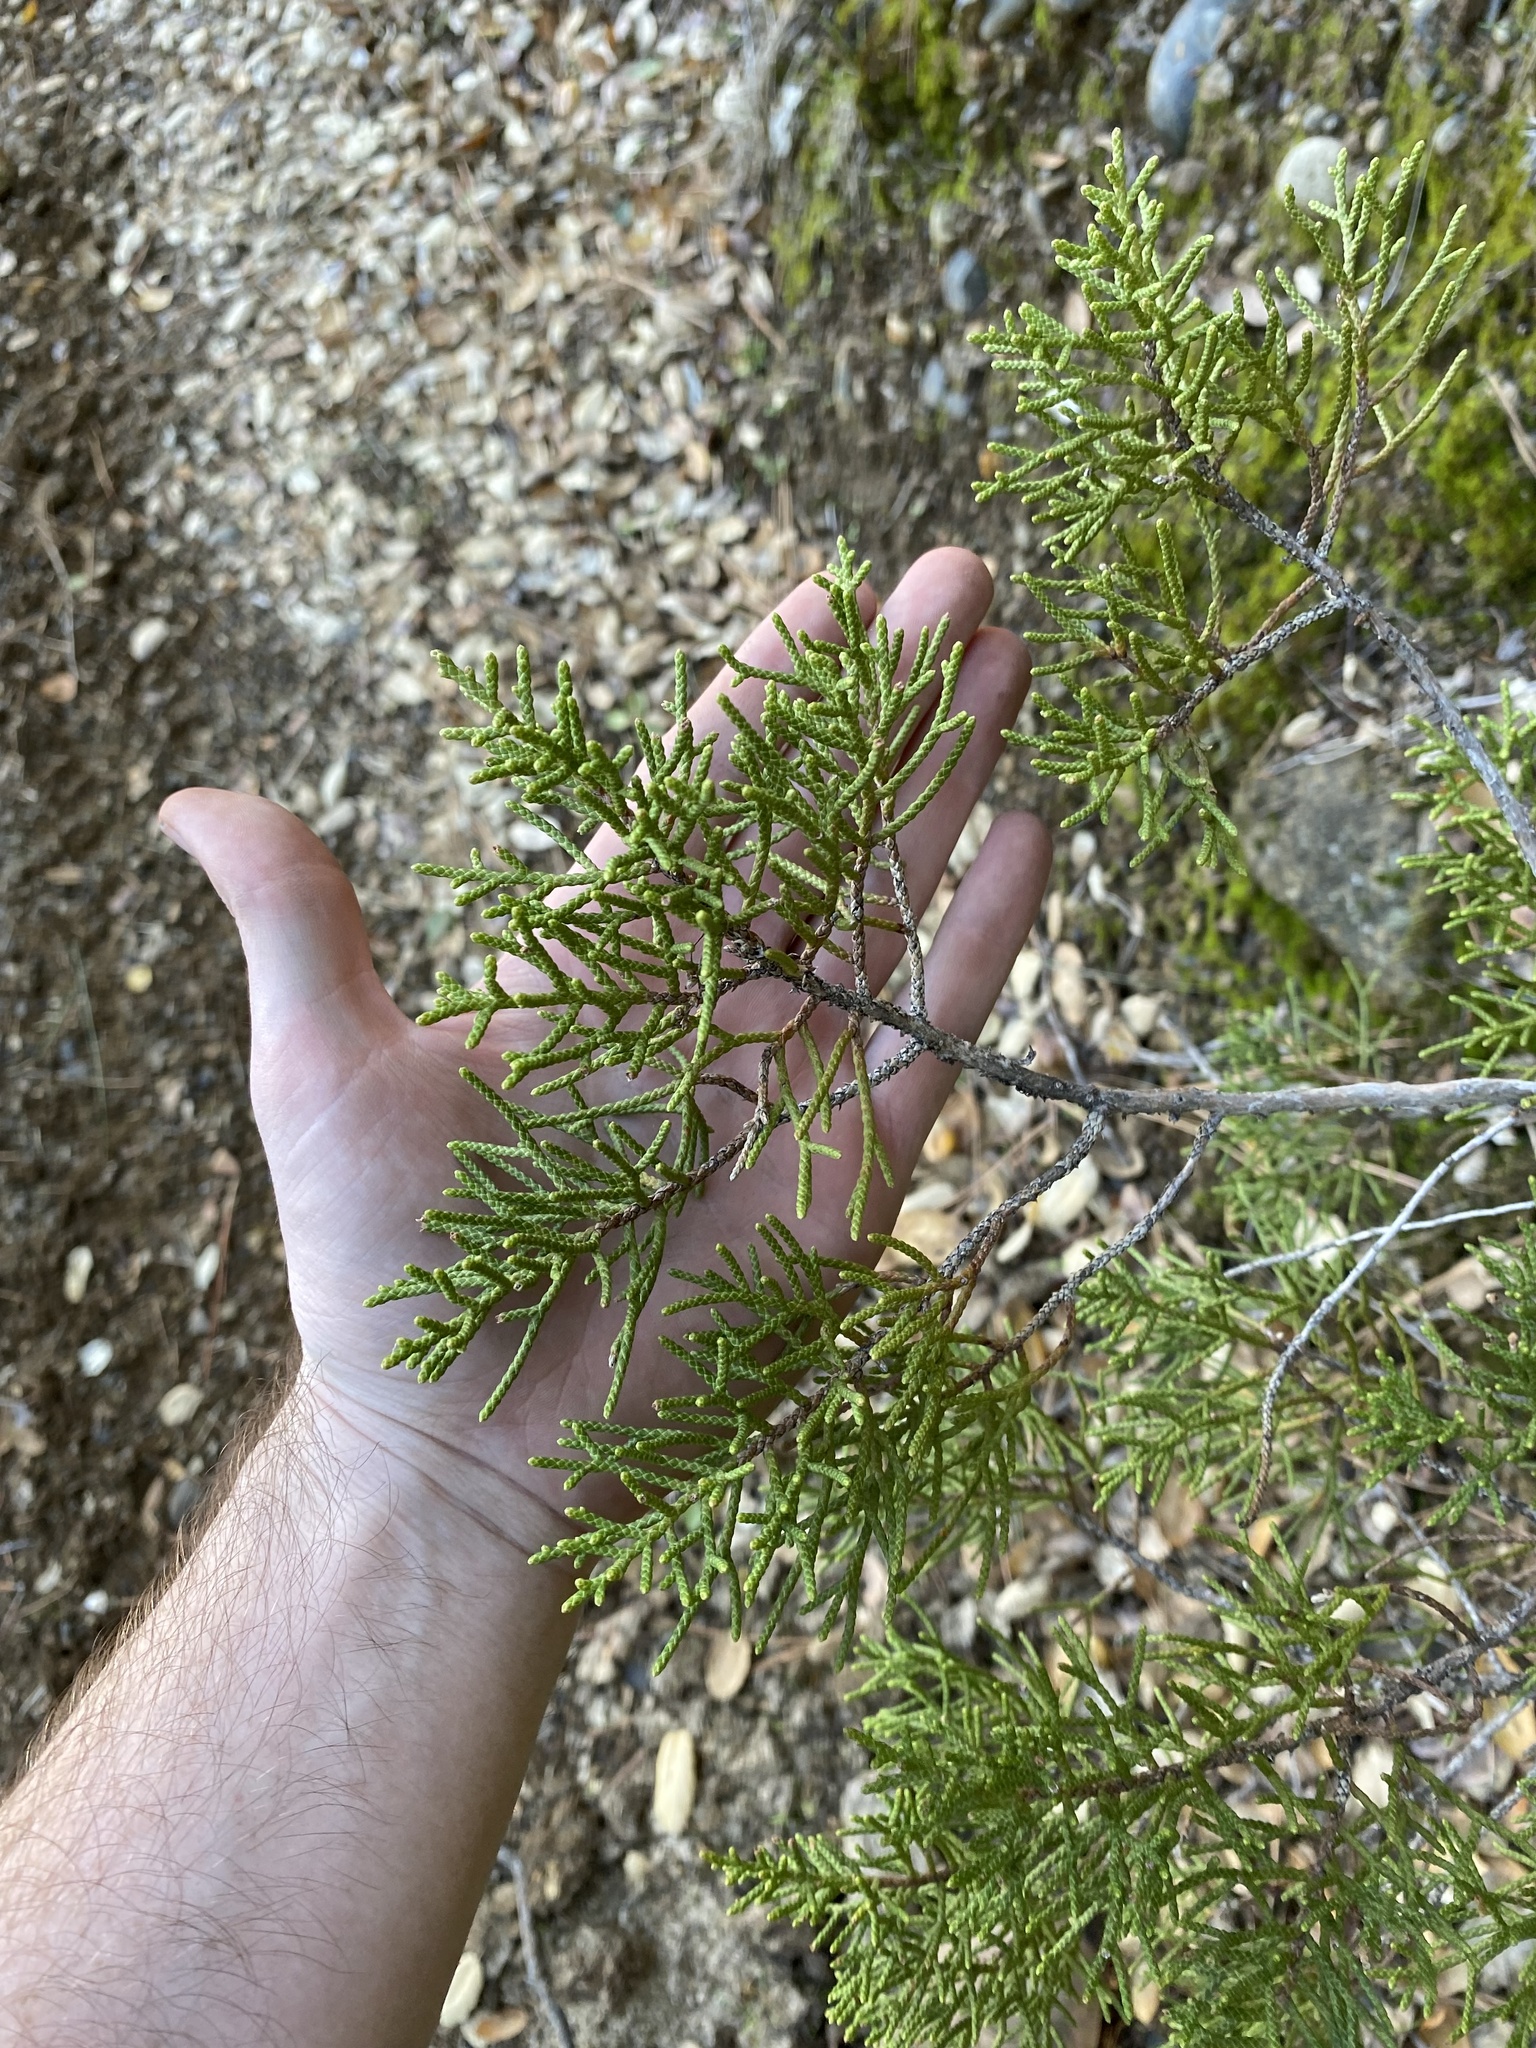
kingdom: Plantae
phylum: Tracheophyta
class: Pinopsida
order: Pinales
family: Cupressaceae
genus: Juniperus
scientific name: Juniperus californica
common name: California juniper
